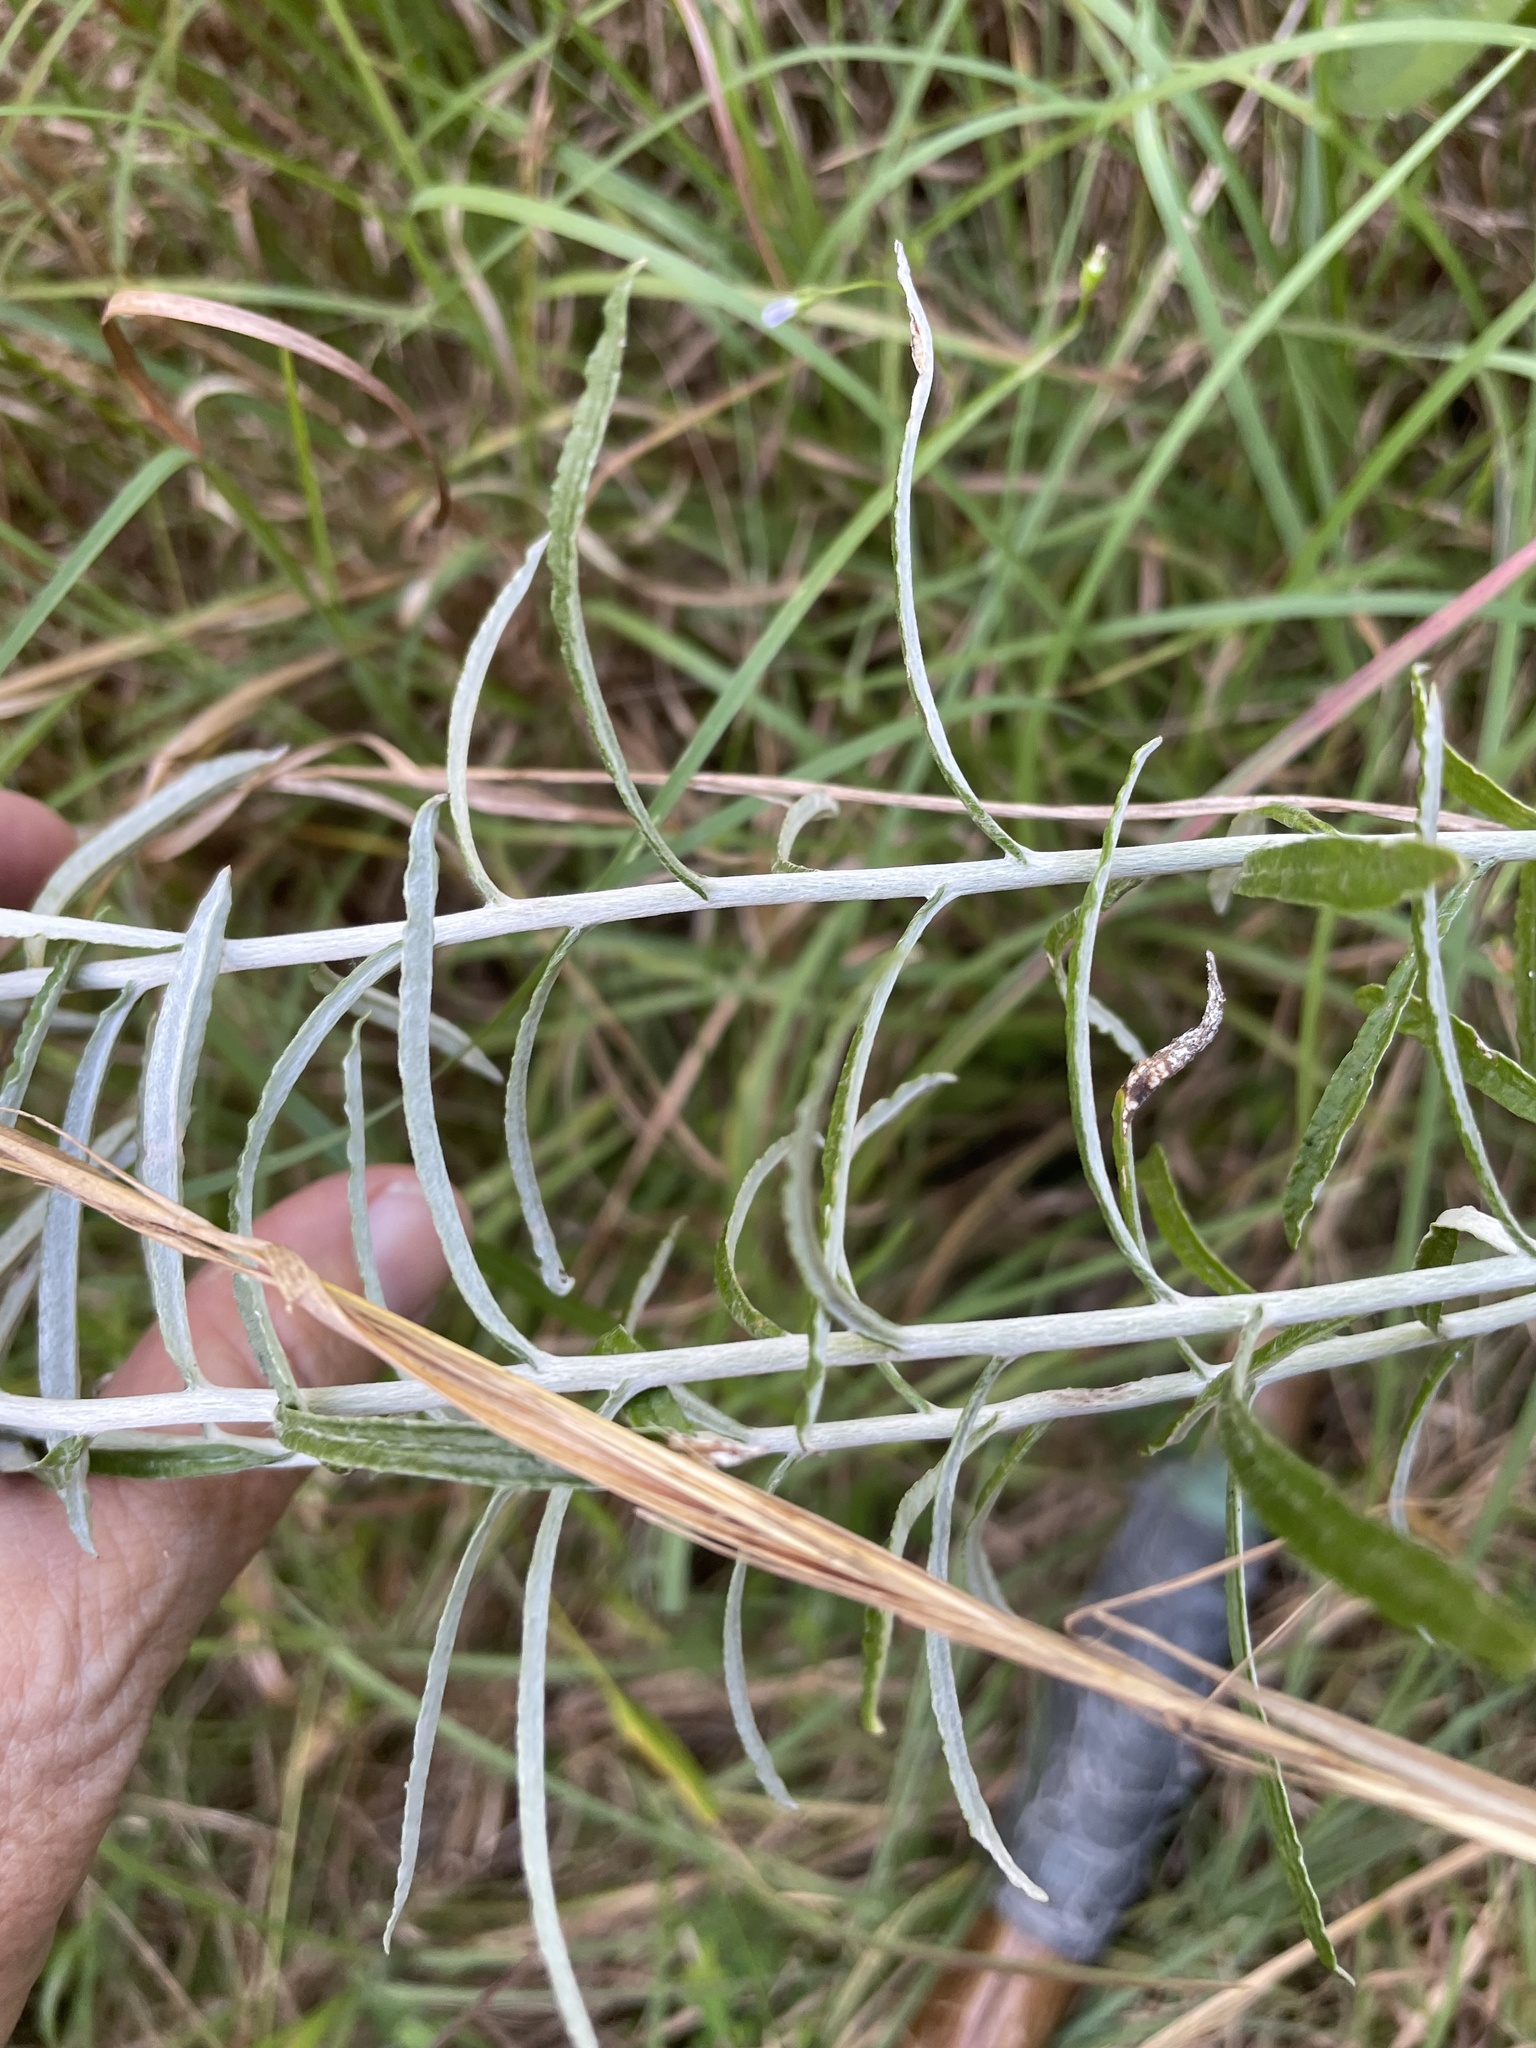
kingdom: Plantae
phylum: Tracheophyta
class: Magnoliopsida
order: Asterales
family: Asteraceae
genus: Pseudognaphalium
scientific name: Pseudognaphalium obtusifolium
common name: Eastern rabbit-tobacco
